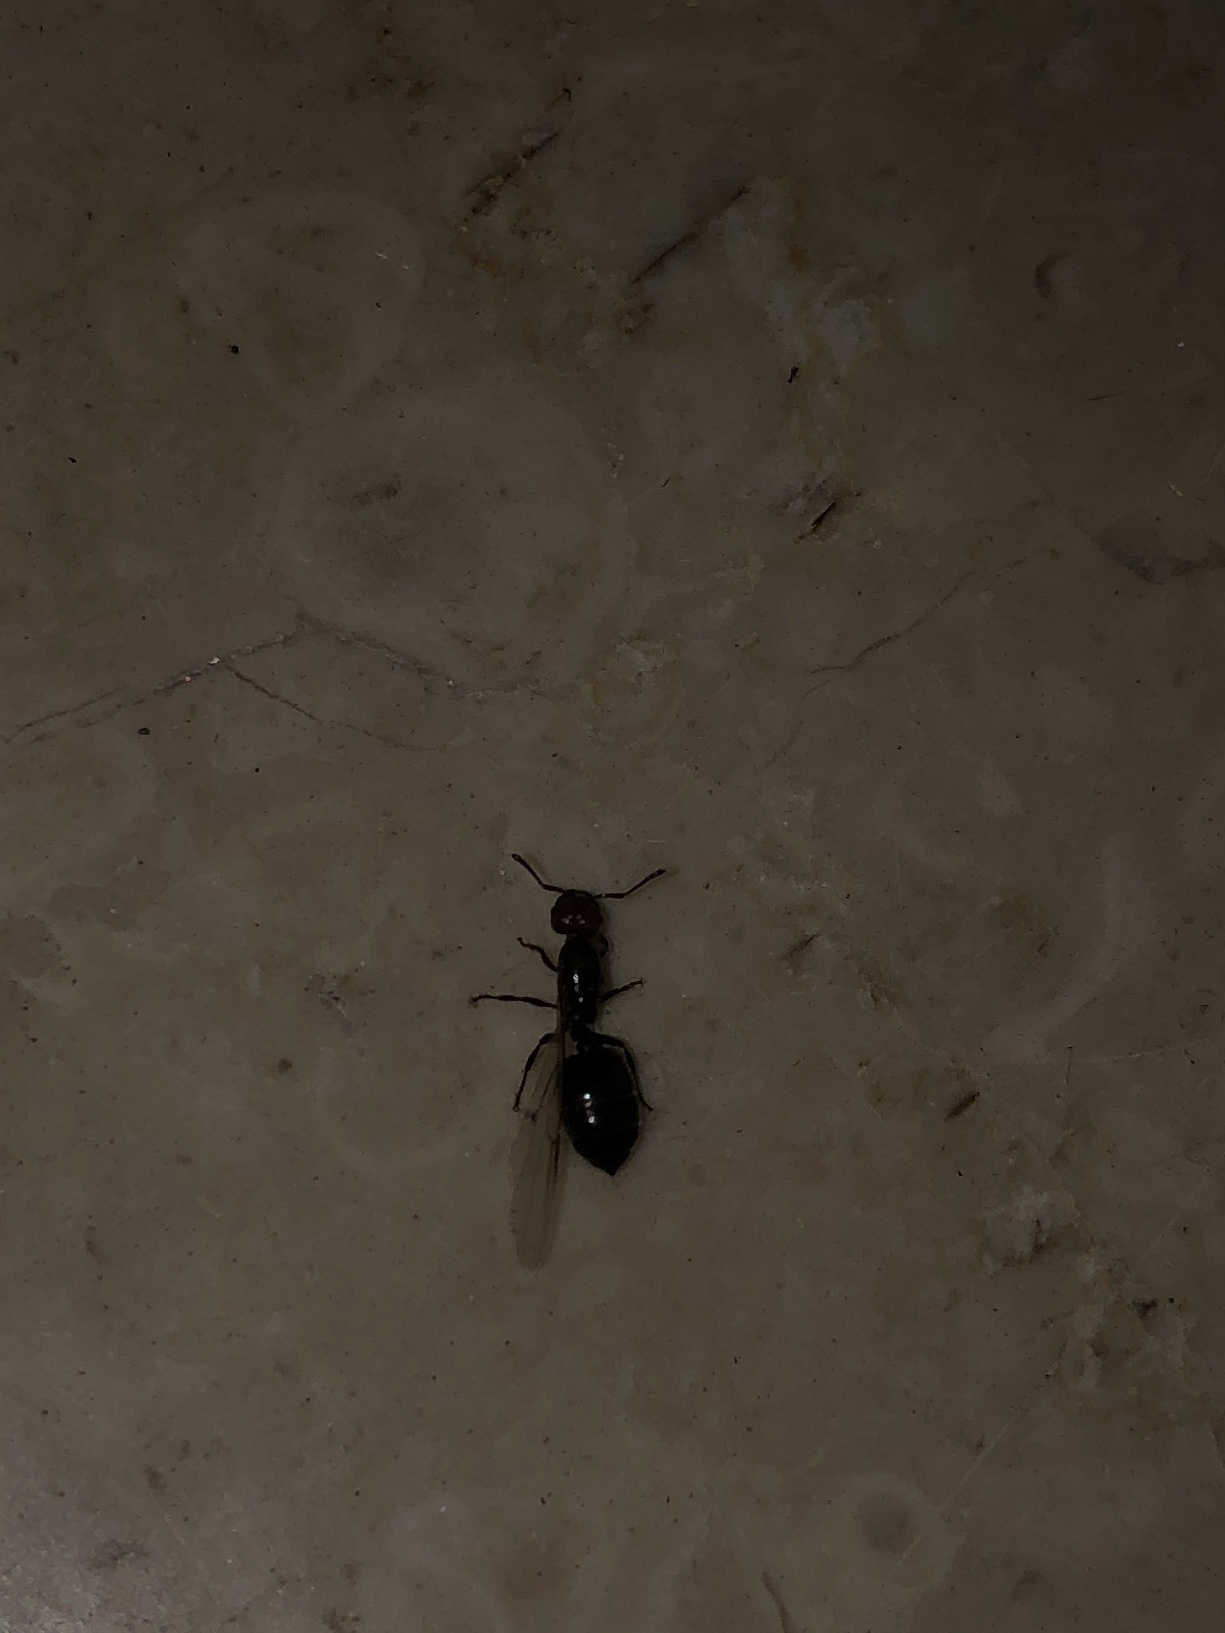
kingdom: Animalia
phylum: Arthropoda
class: Insecta
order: Hymenoptera
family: Formicidae
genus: Crematogaster
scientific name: Crematogaster scutellaris
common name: Fourmi du liège
